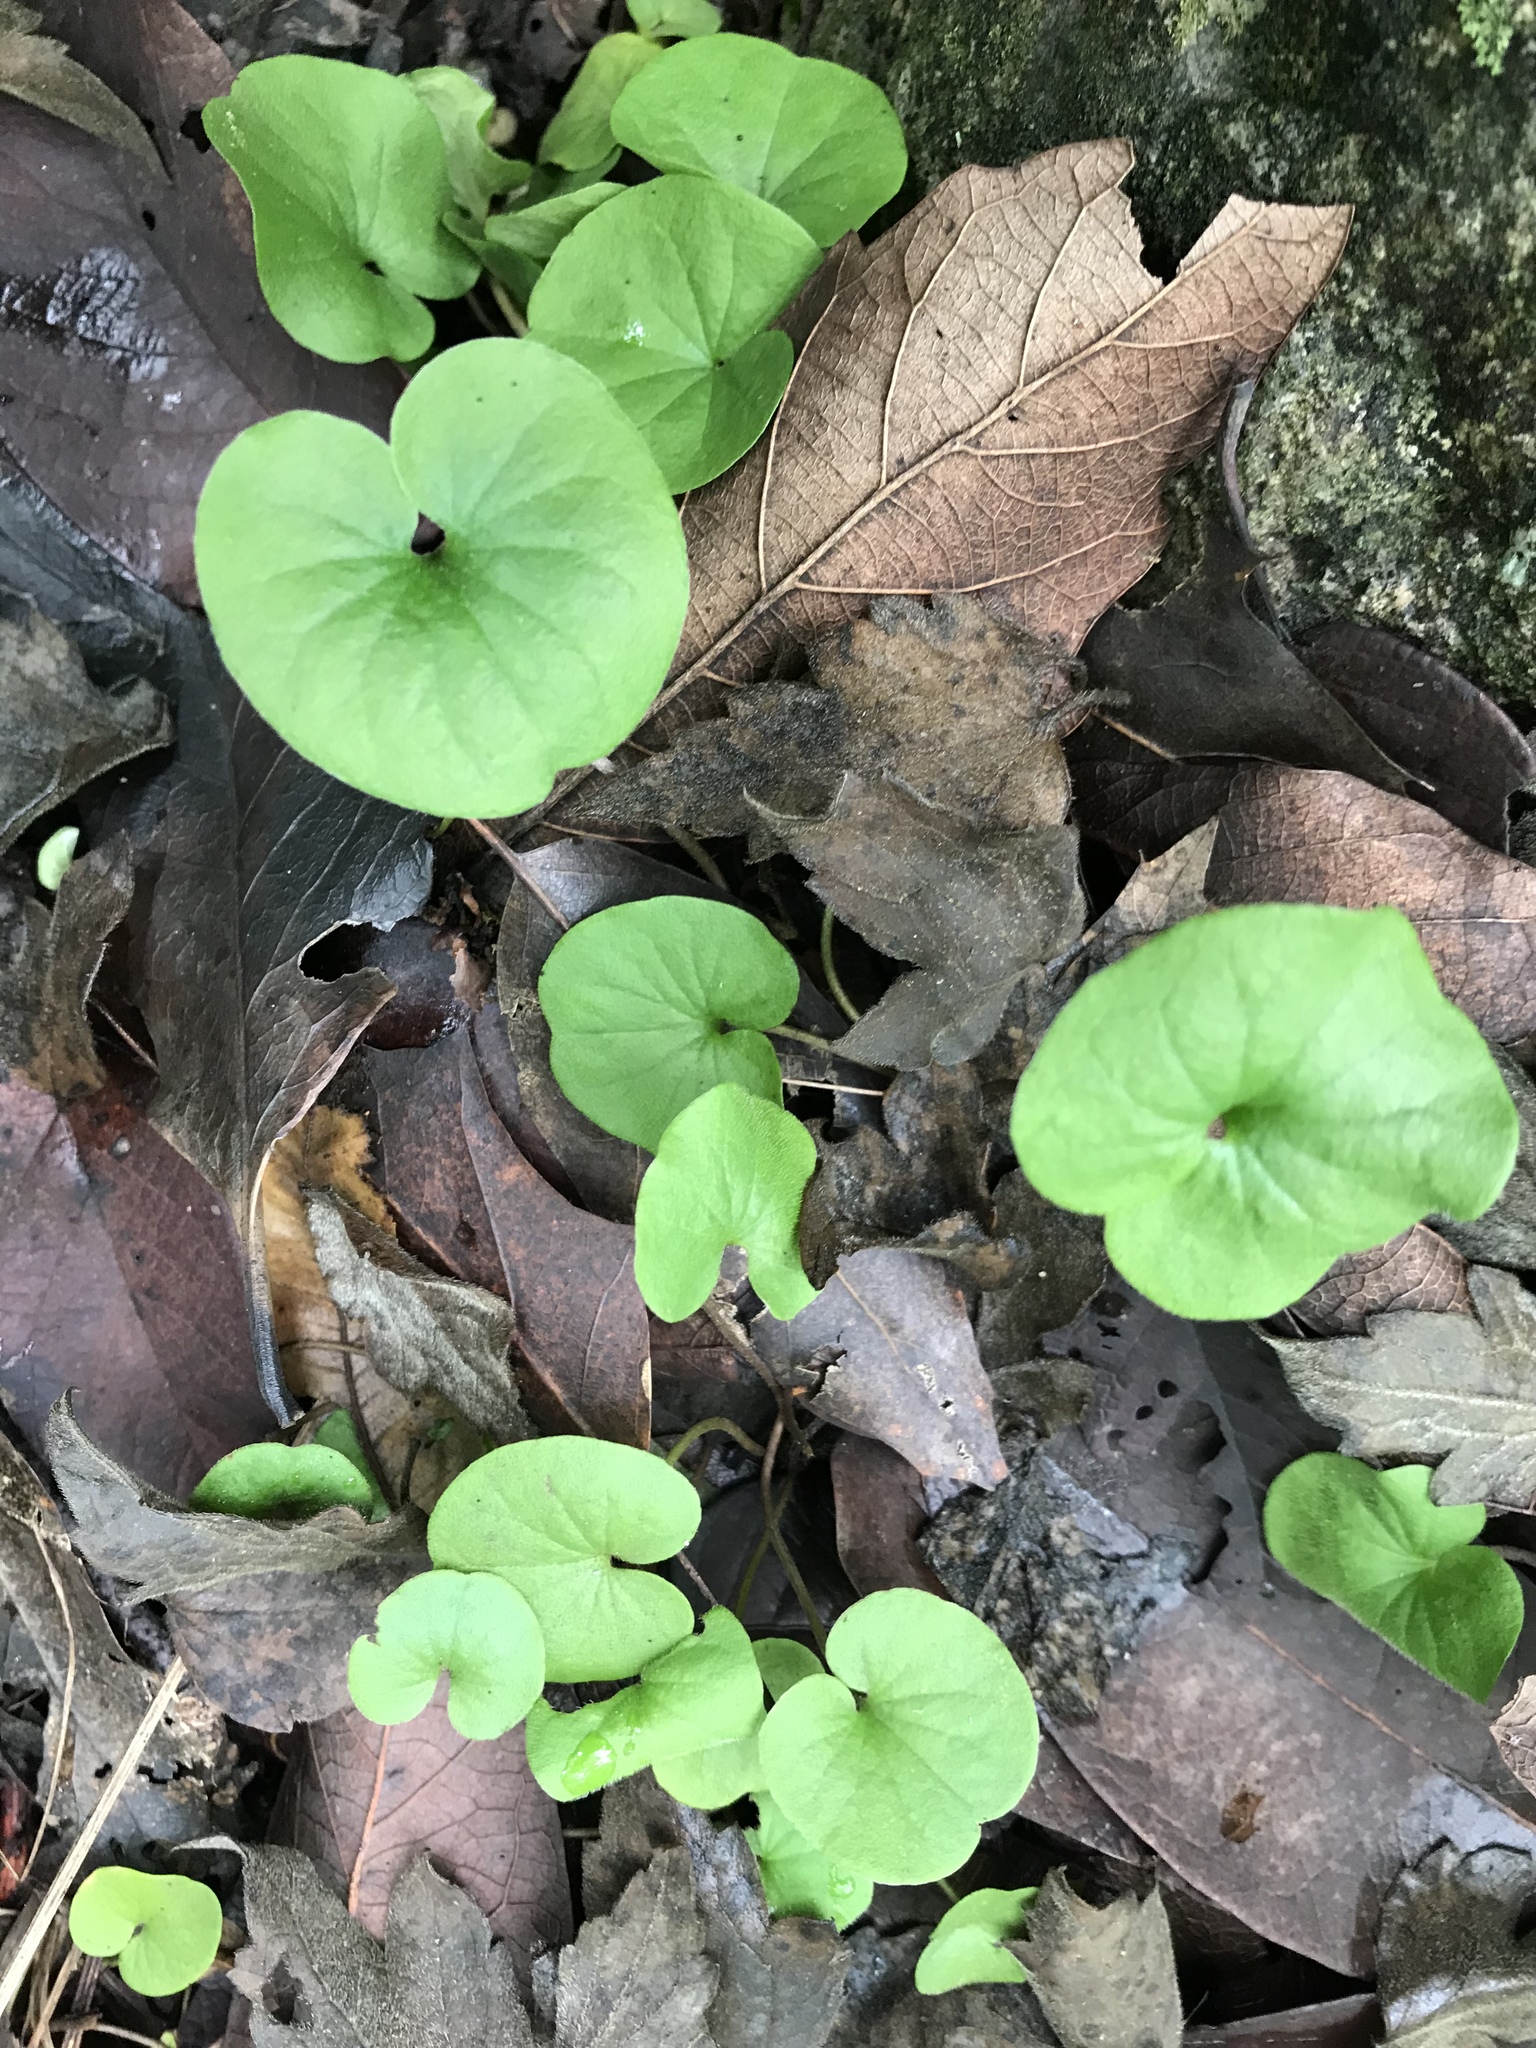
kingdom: Plantae
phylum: Tracheophyta
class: Magnoliopsida
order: Solanales
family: Convolvulaceae
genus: Dichondra
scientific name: Dichondra repens
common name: Kidneyweed
